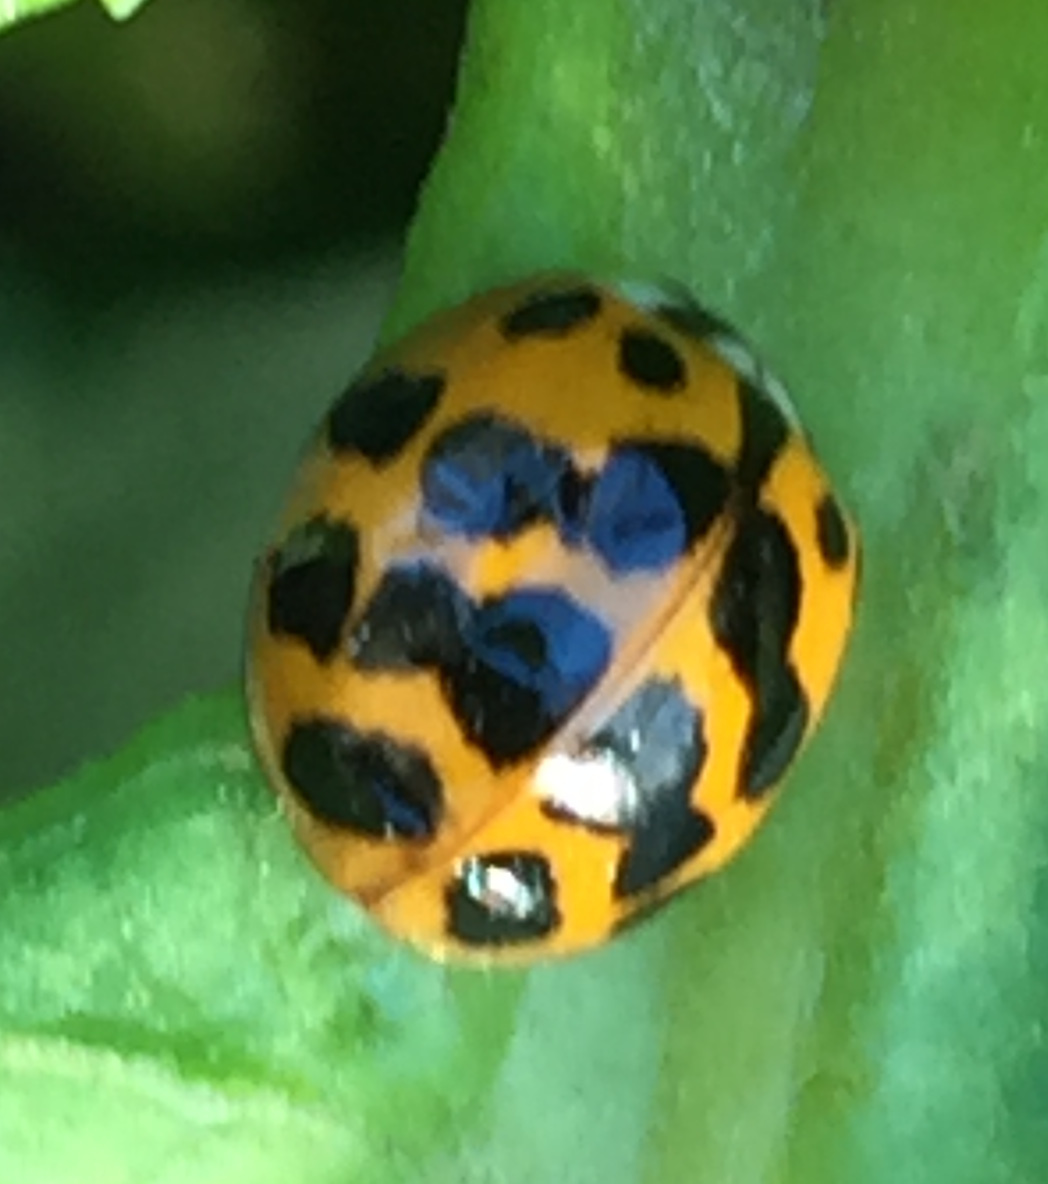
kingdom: Animalia
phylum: Arthropoda
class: Insecta
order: Coleoptera
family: Coccinellidae
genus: Harmonia
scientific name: Harmonia axyridis
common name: Harlequin ladybird
